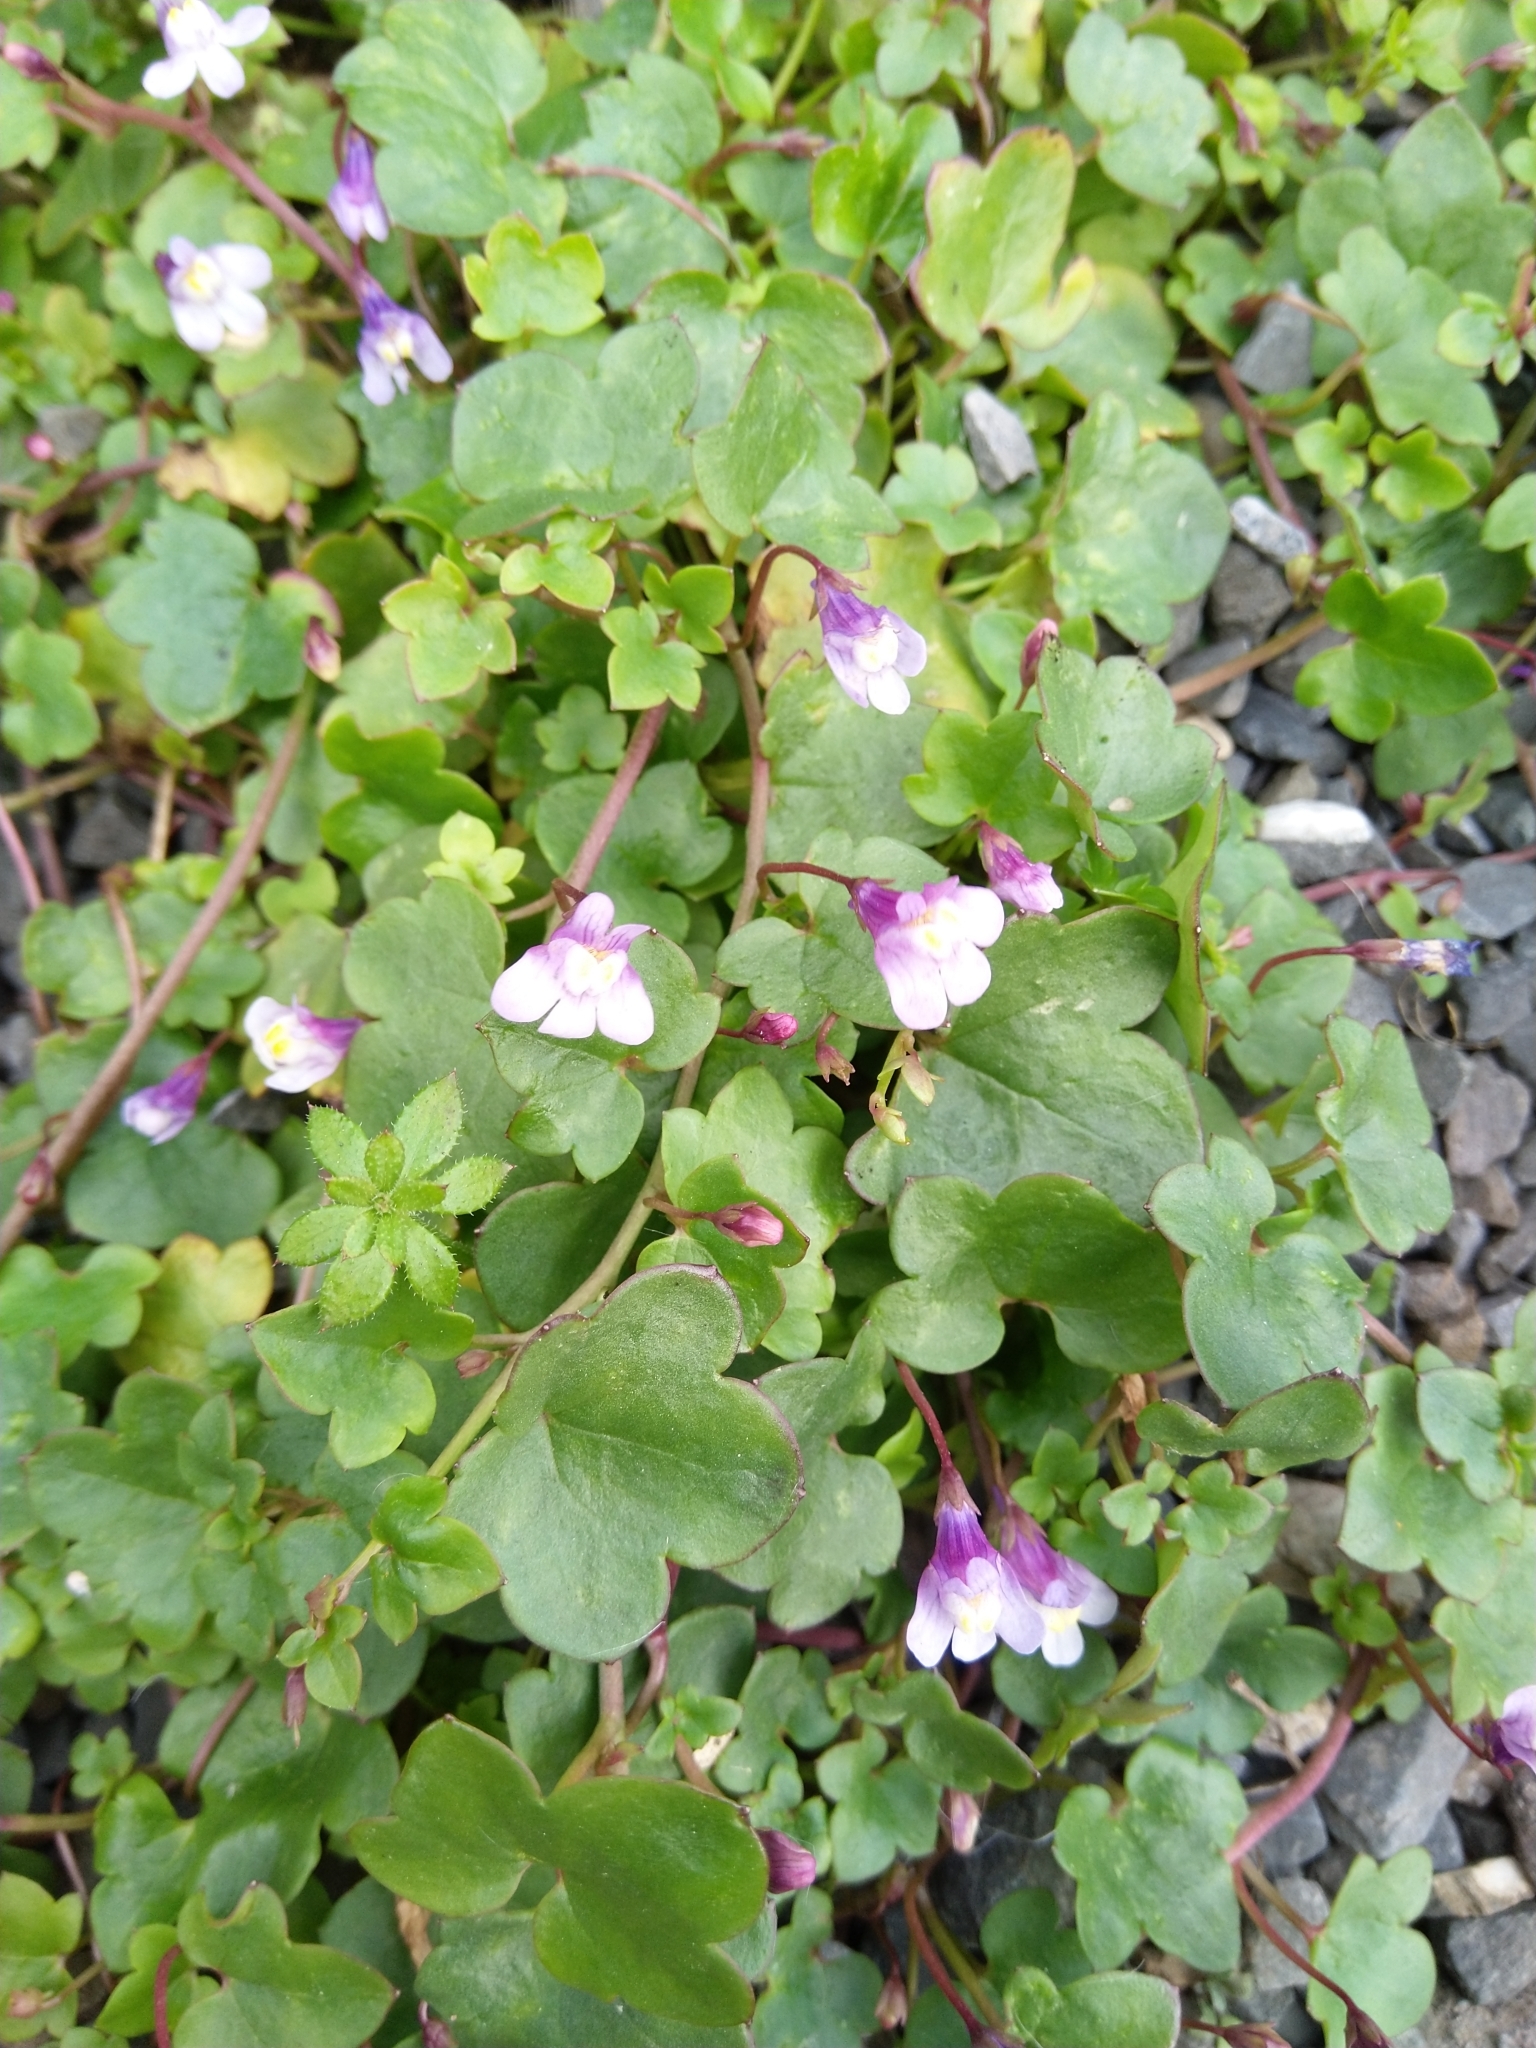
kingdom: Plantae
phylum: Tracheophyta
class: Magnoliopsida
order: Lamiales
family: Plantaginaceae
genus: Cymbalaria
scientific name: Cymbalaria muralis
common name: Ivy-leaved toadflax
